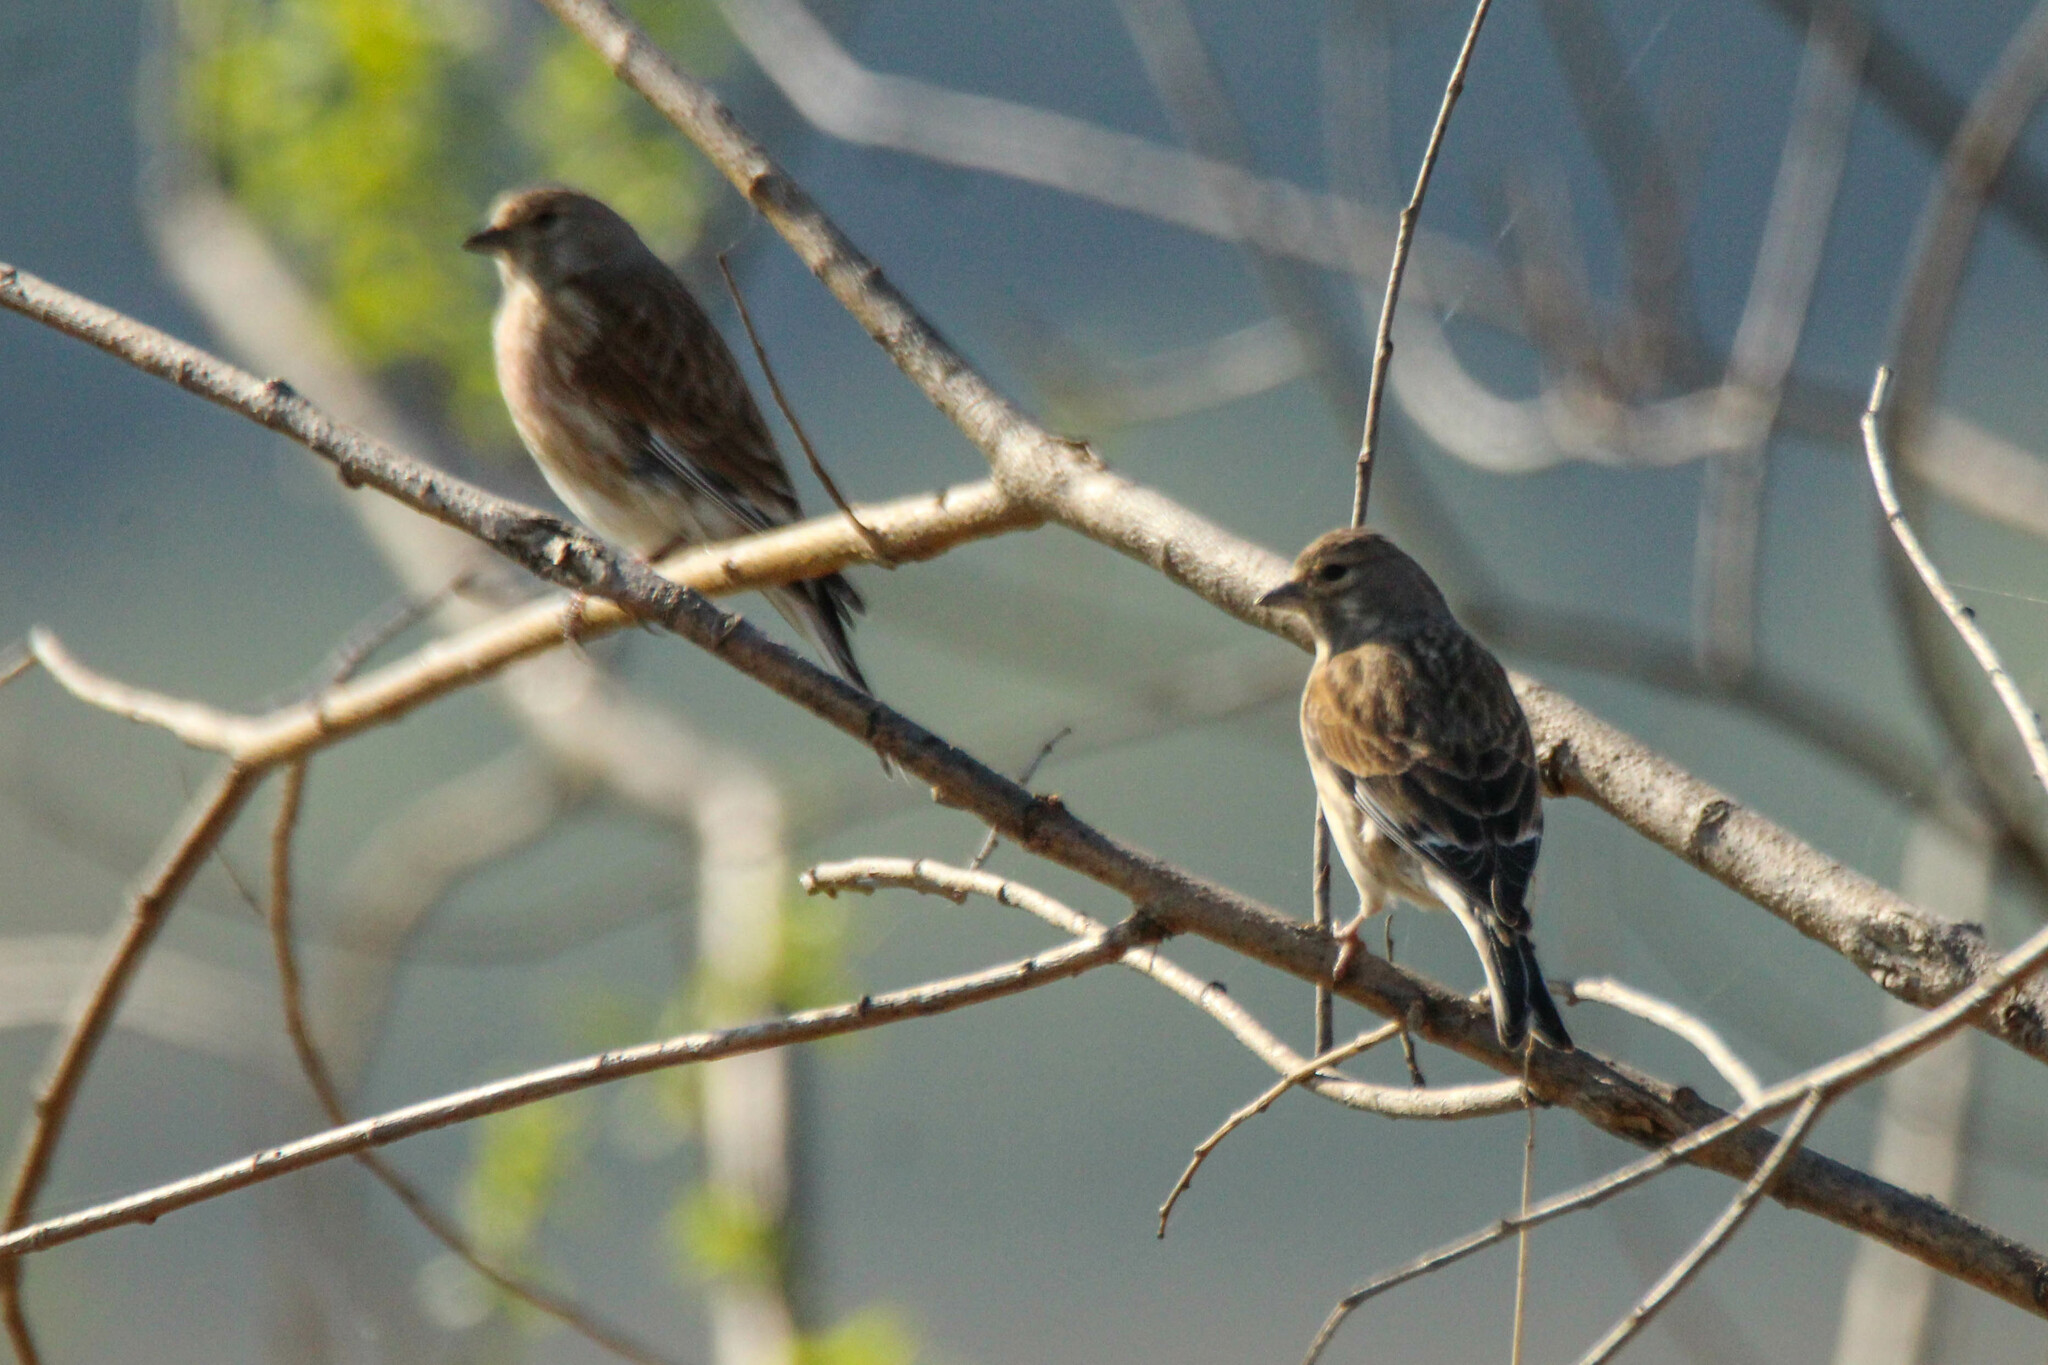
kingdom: Animalia
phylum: Chordata
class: Aves
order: Passeriformes
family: Fringillidae
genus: Linaria
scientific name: Linaria cannabina
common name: Common linnet
